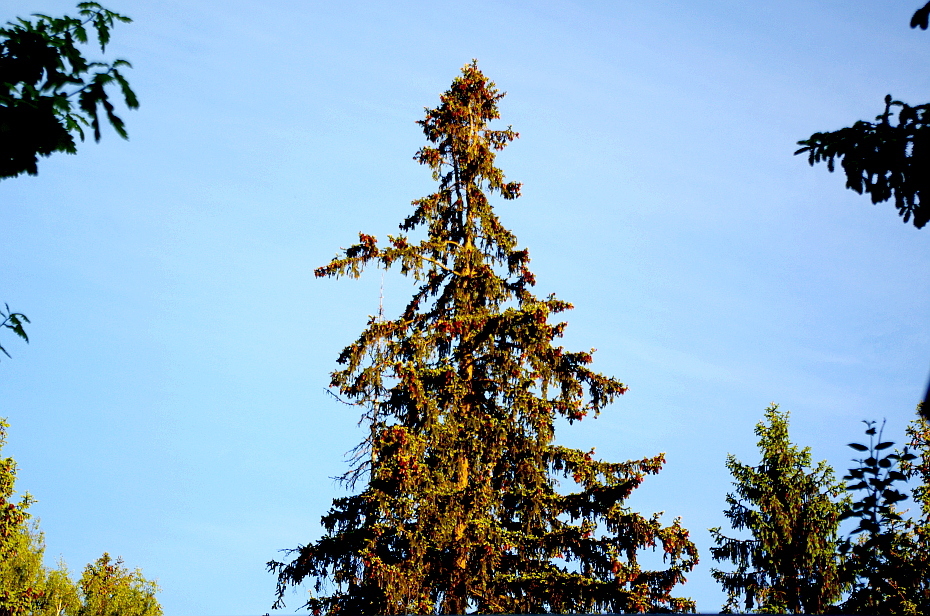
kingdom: Plantae
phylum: Tracheophyta
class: Pinopsida
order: Pinales
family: Pinaceae
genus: Picea
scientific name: Picea abies
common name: Norway spruce
